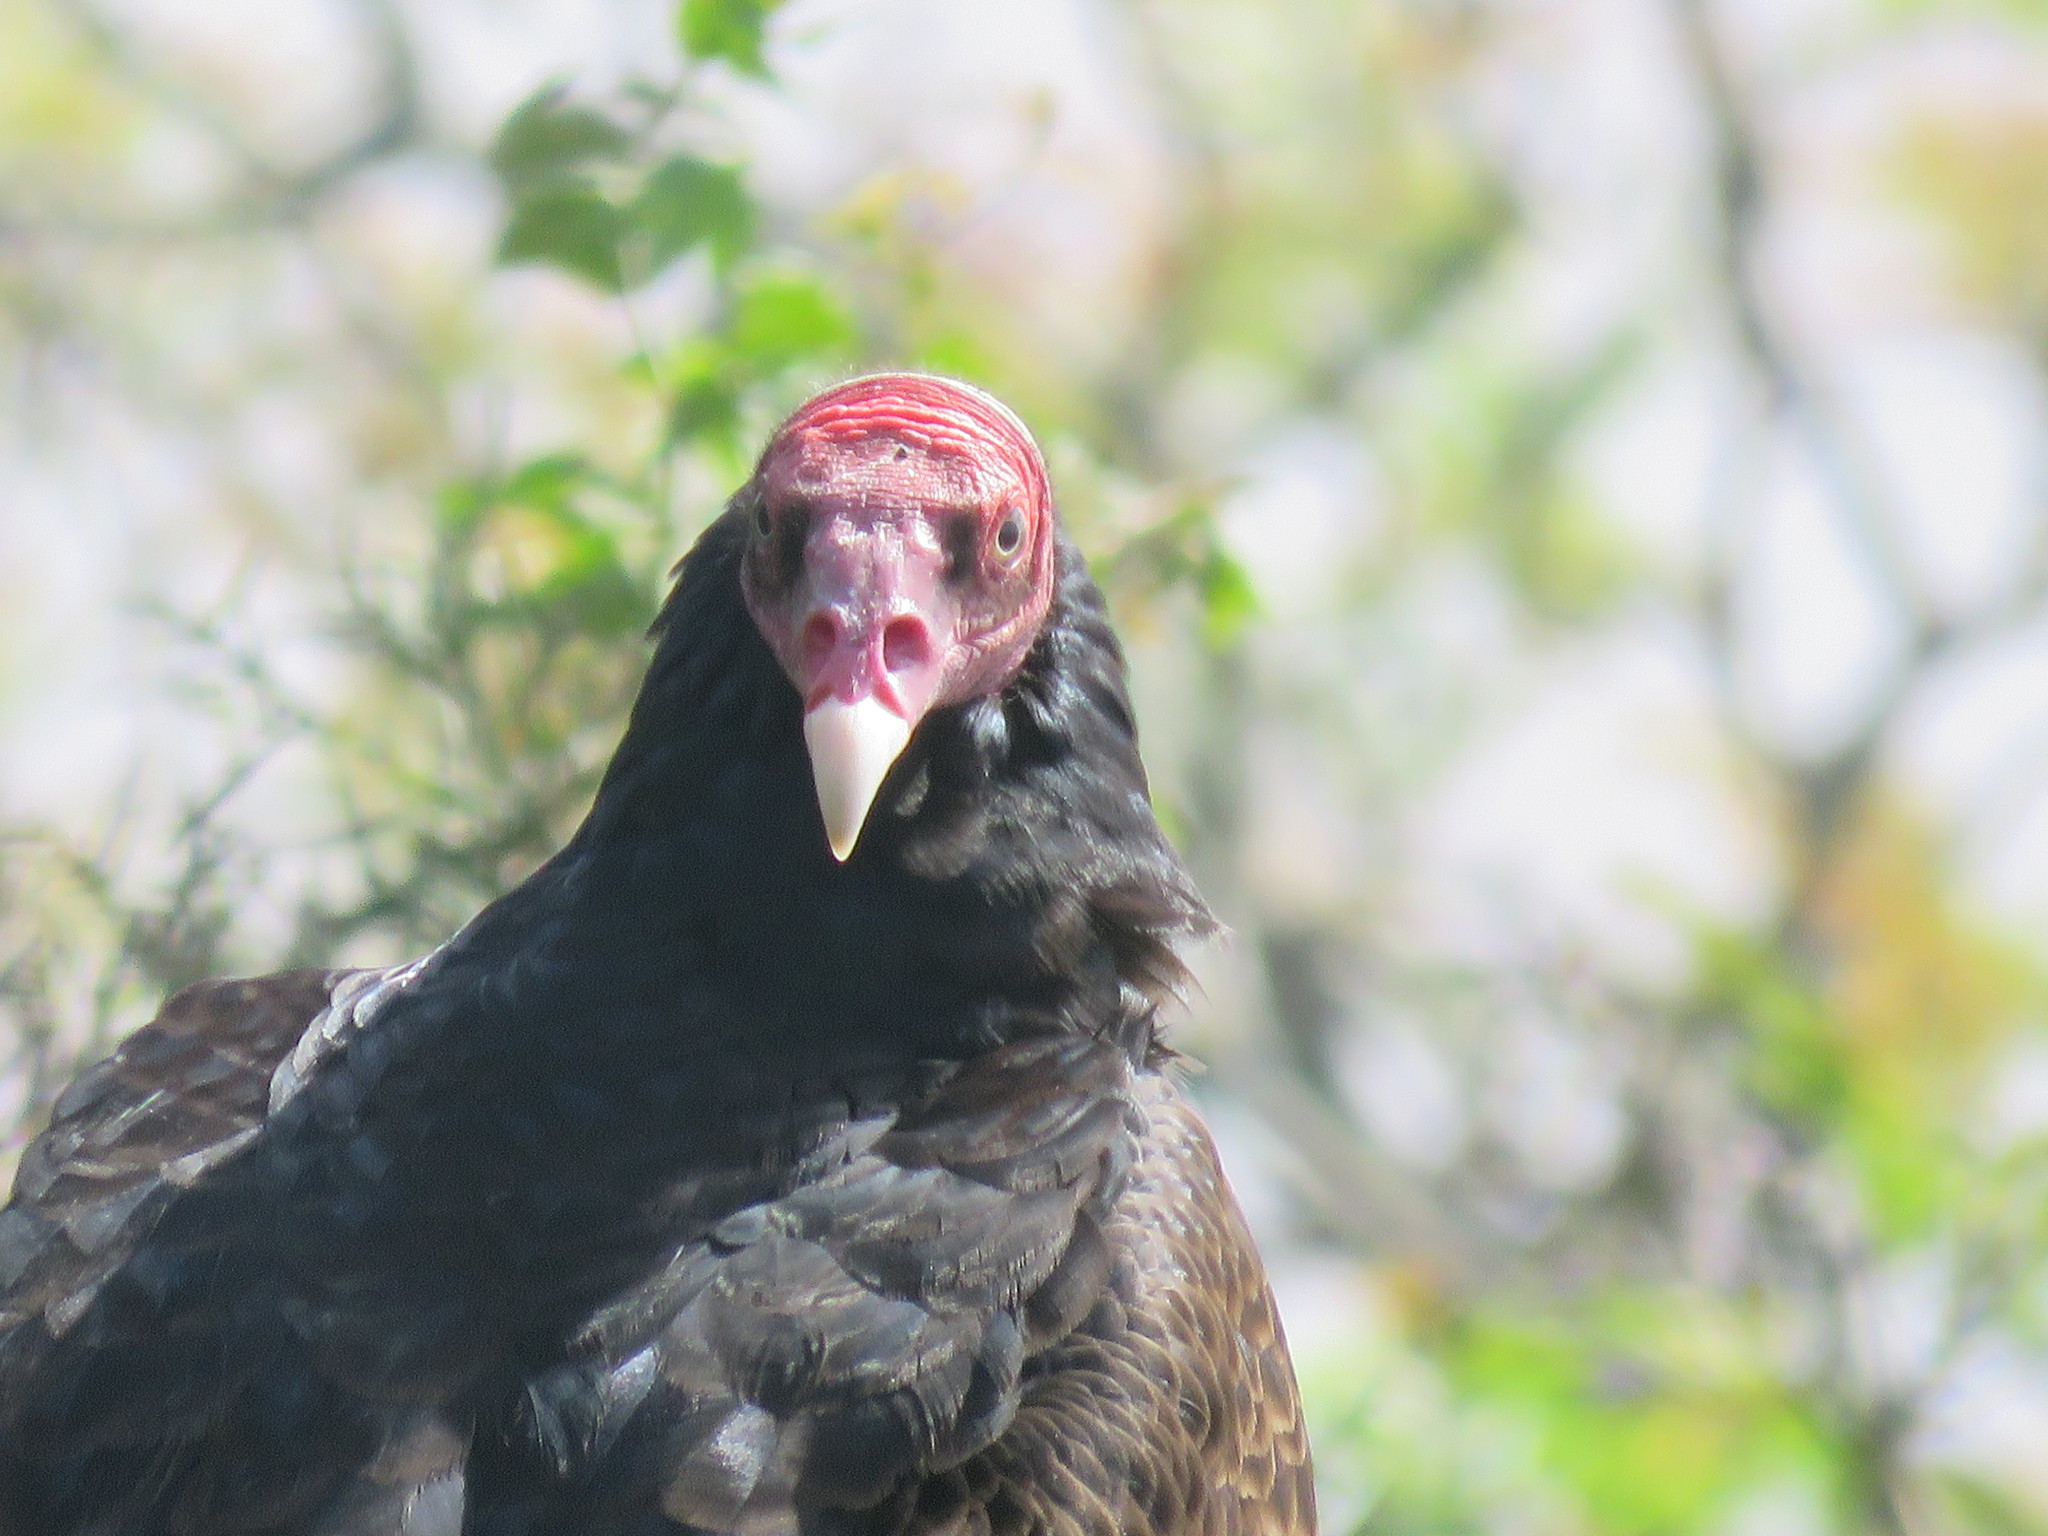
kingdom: Animalia
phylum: Chordata
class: Aves
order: Accipitriformes
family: Cathartidae
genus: Cathartes
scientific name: Cathartes aura
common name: Turkey vulture
